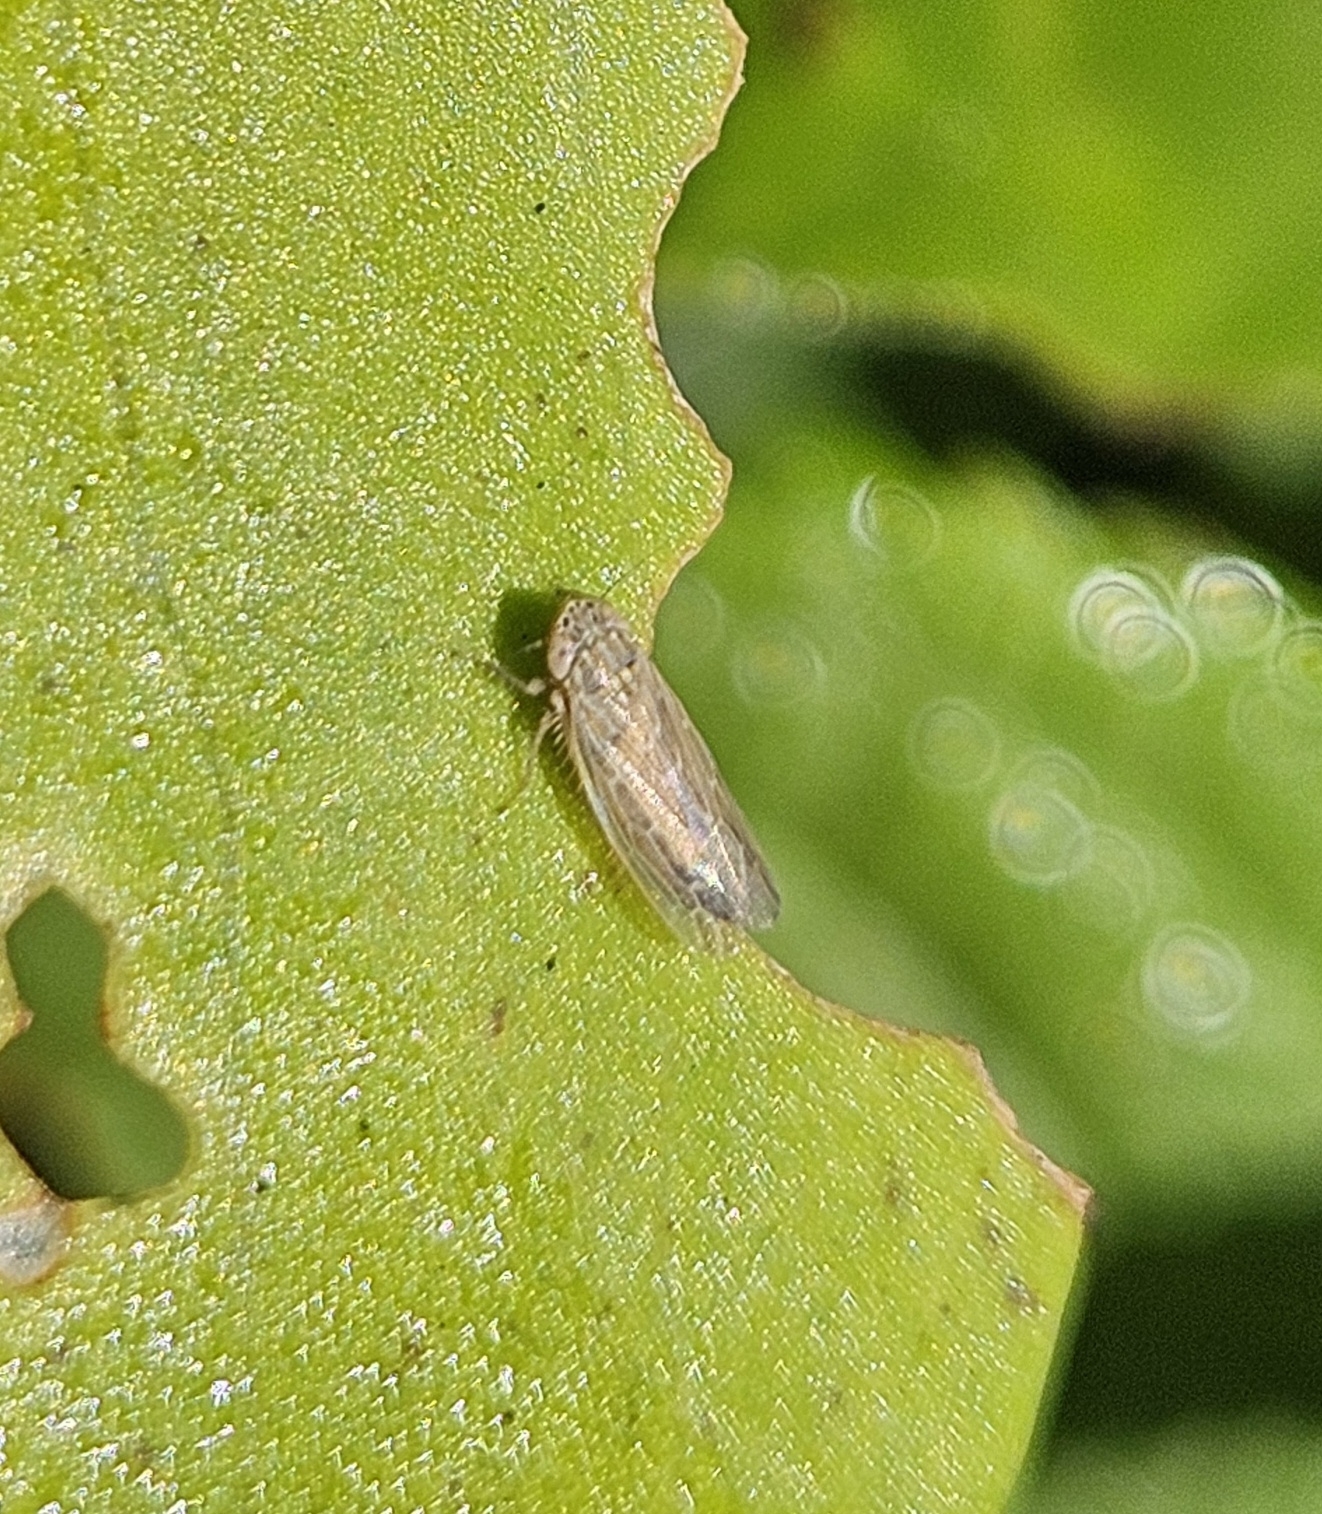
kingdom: Animalia
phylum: Arthropoda
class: Insecta
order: Hemiptera
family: Cicadellidae
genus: Graminella
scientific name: Graminella sonora
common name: Lesser lawn leafhopper
